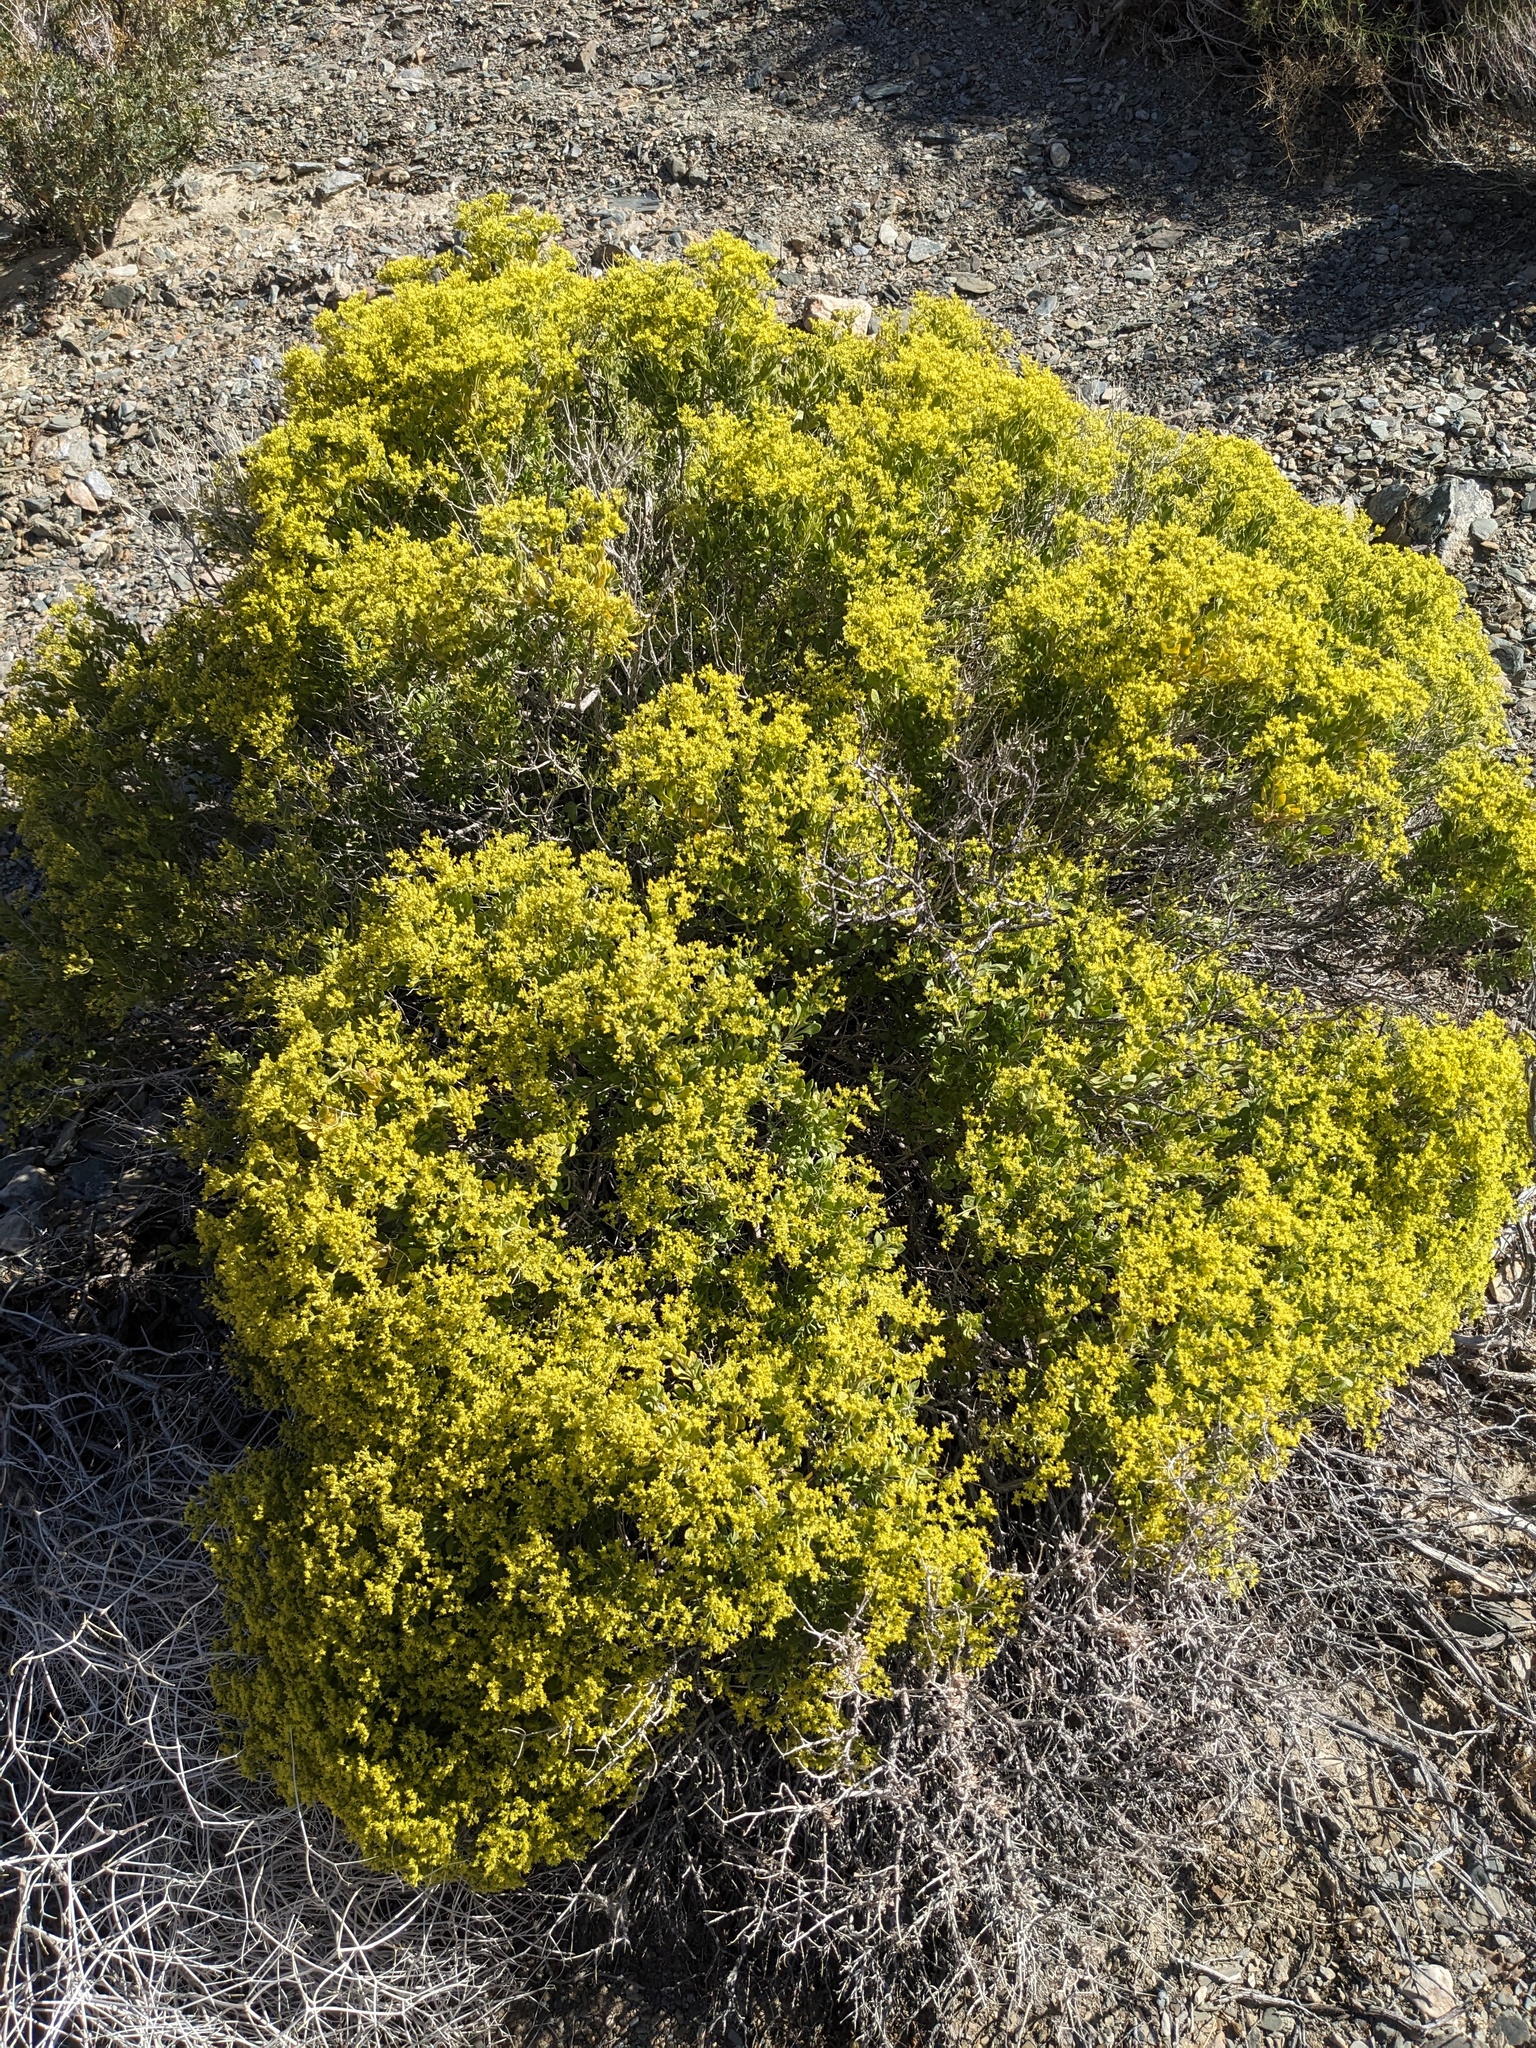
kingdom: Plantae
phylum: Tracheophyta
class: Magnoliopsida
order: Caryophyllales
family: Polygonaceae
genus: Dedeckera
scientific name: Dedeckera eurekensis
